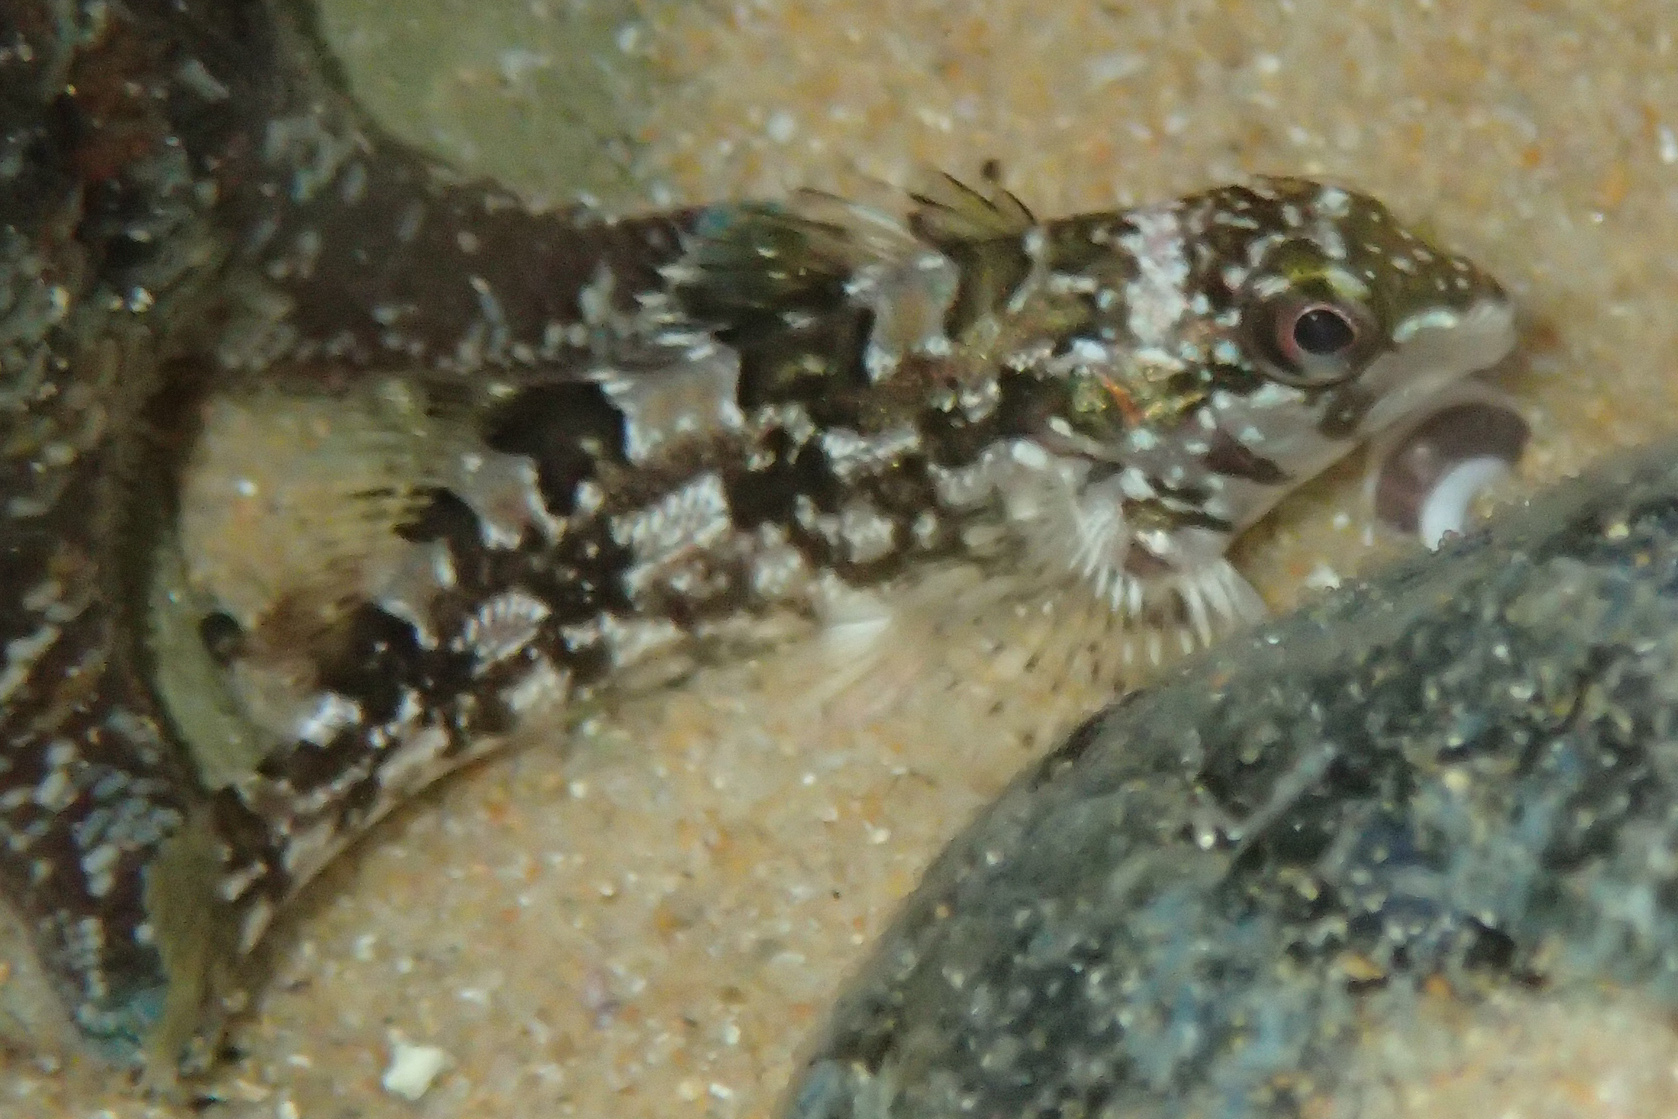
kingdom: Animalia
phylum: Chordata
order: Perciformes
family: Chironemidae
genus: Chironemus
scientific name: Chironemus marmoratus
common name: Kelpfish
